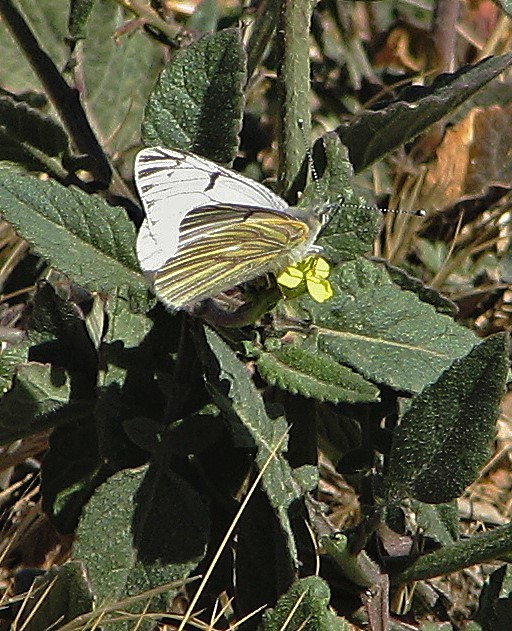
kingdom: Animalia
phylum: Arthropoda
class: Insecta
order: Lepidoptera
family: Pieridae
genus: Tatochila
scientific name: Tatochila mercedis
